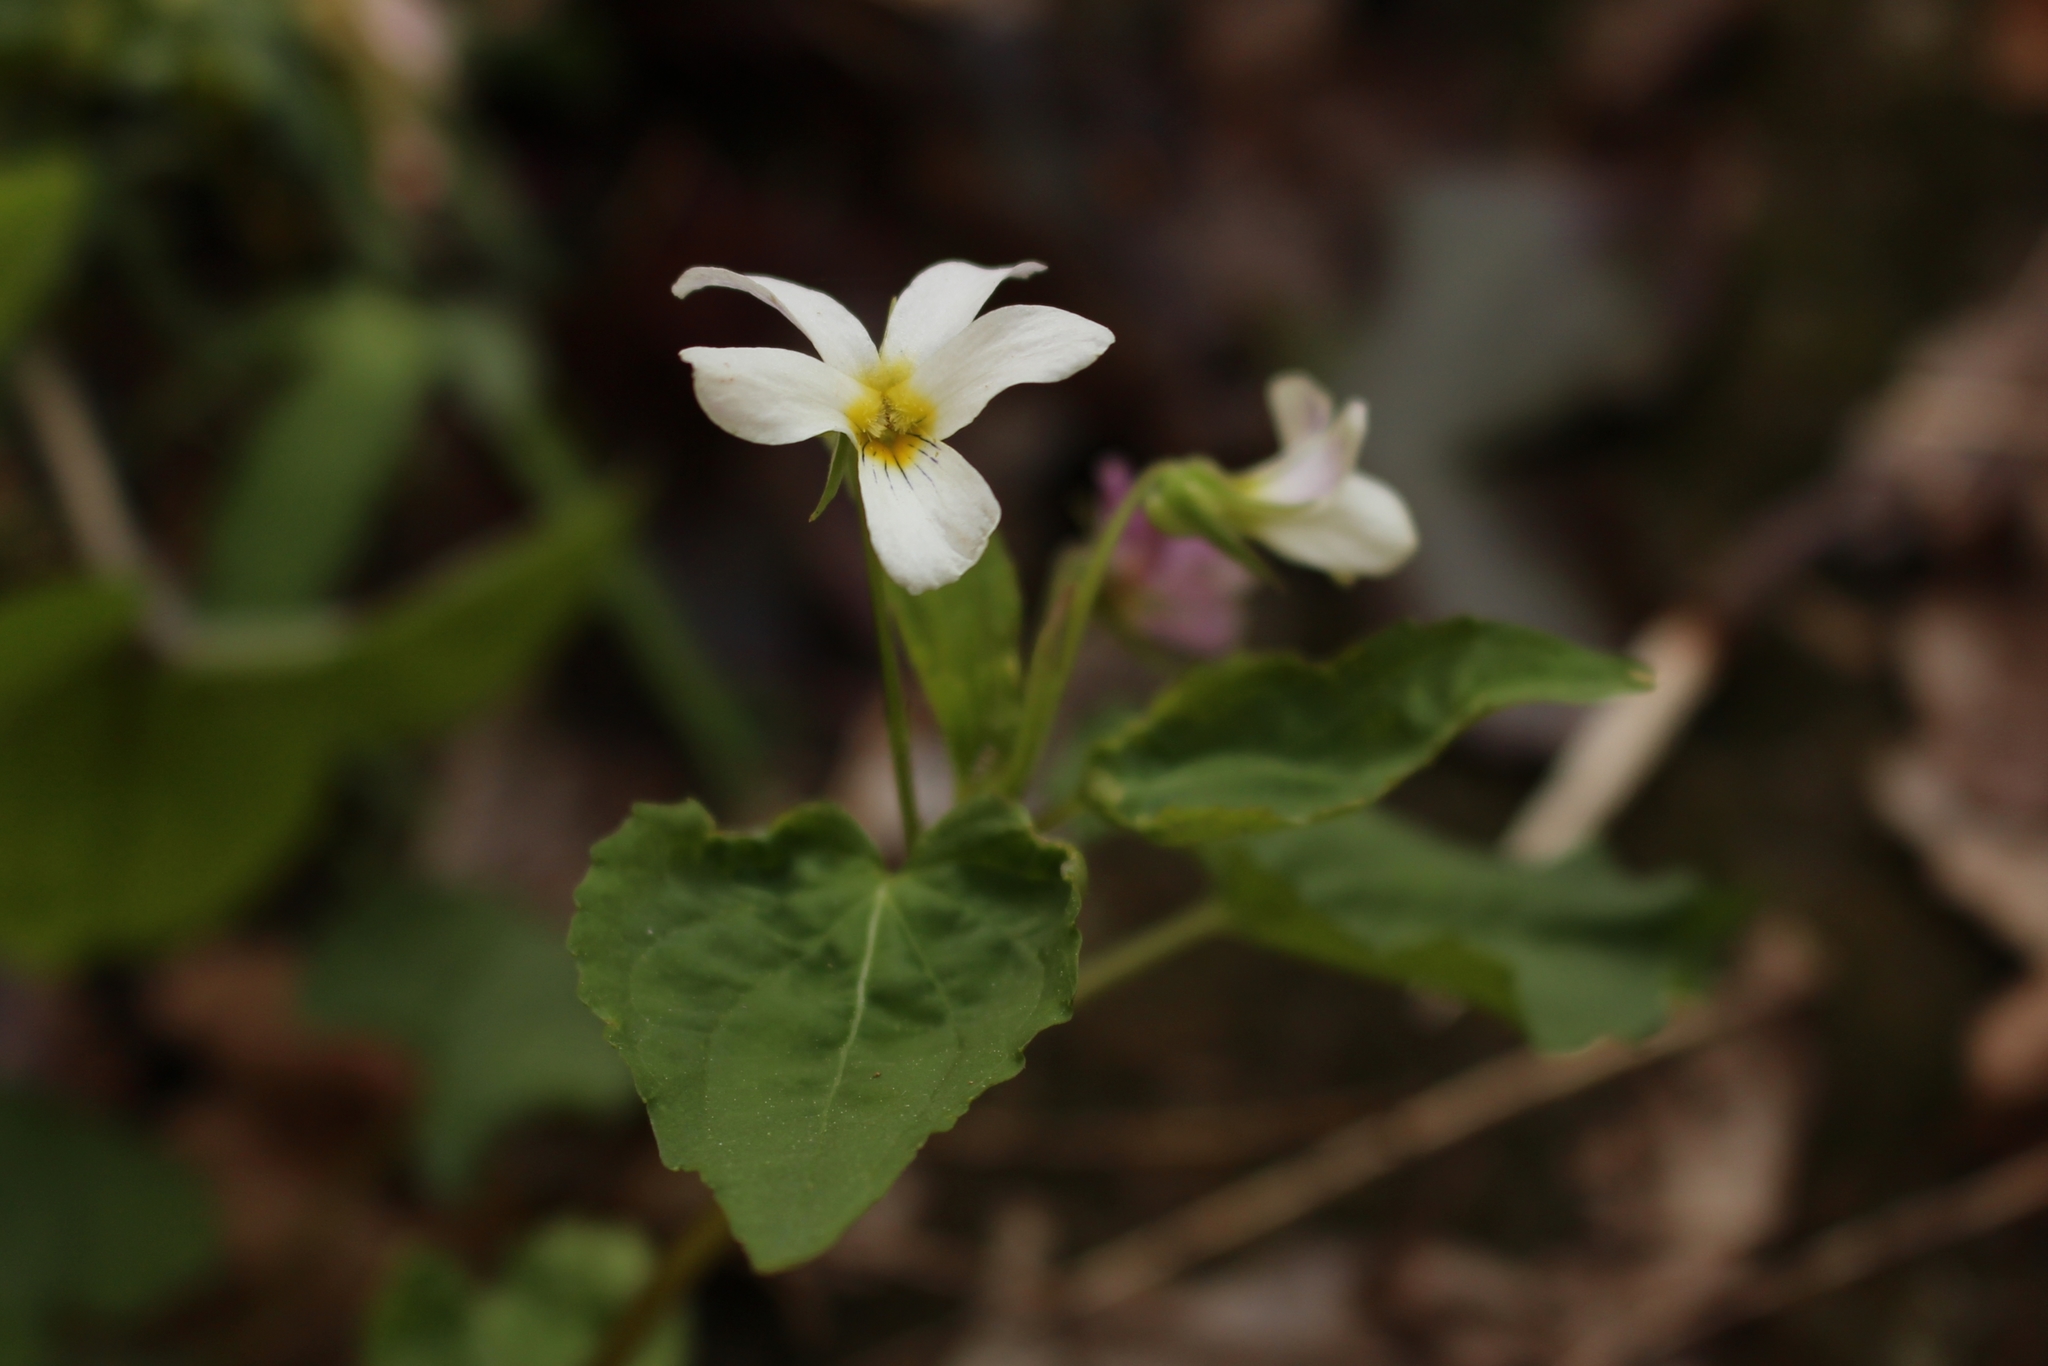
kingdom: Plantae
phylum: Tracheophyta
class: Magnoliopsida
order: Malpighiales
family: Violaceae
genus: Viola
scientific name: Viola canadensis
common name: Canada violet
